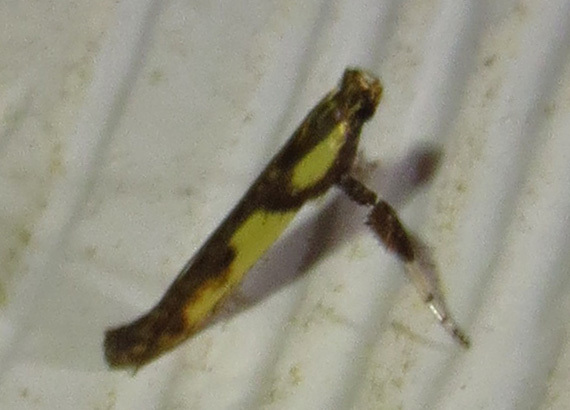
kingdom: Animalia
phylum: Arthropoda
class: Insecta
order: Lepidoptera
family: Gracillariidae
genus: Caloptilia
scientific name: Caloptilia blandella
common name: Walnut caloptilia moth
